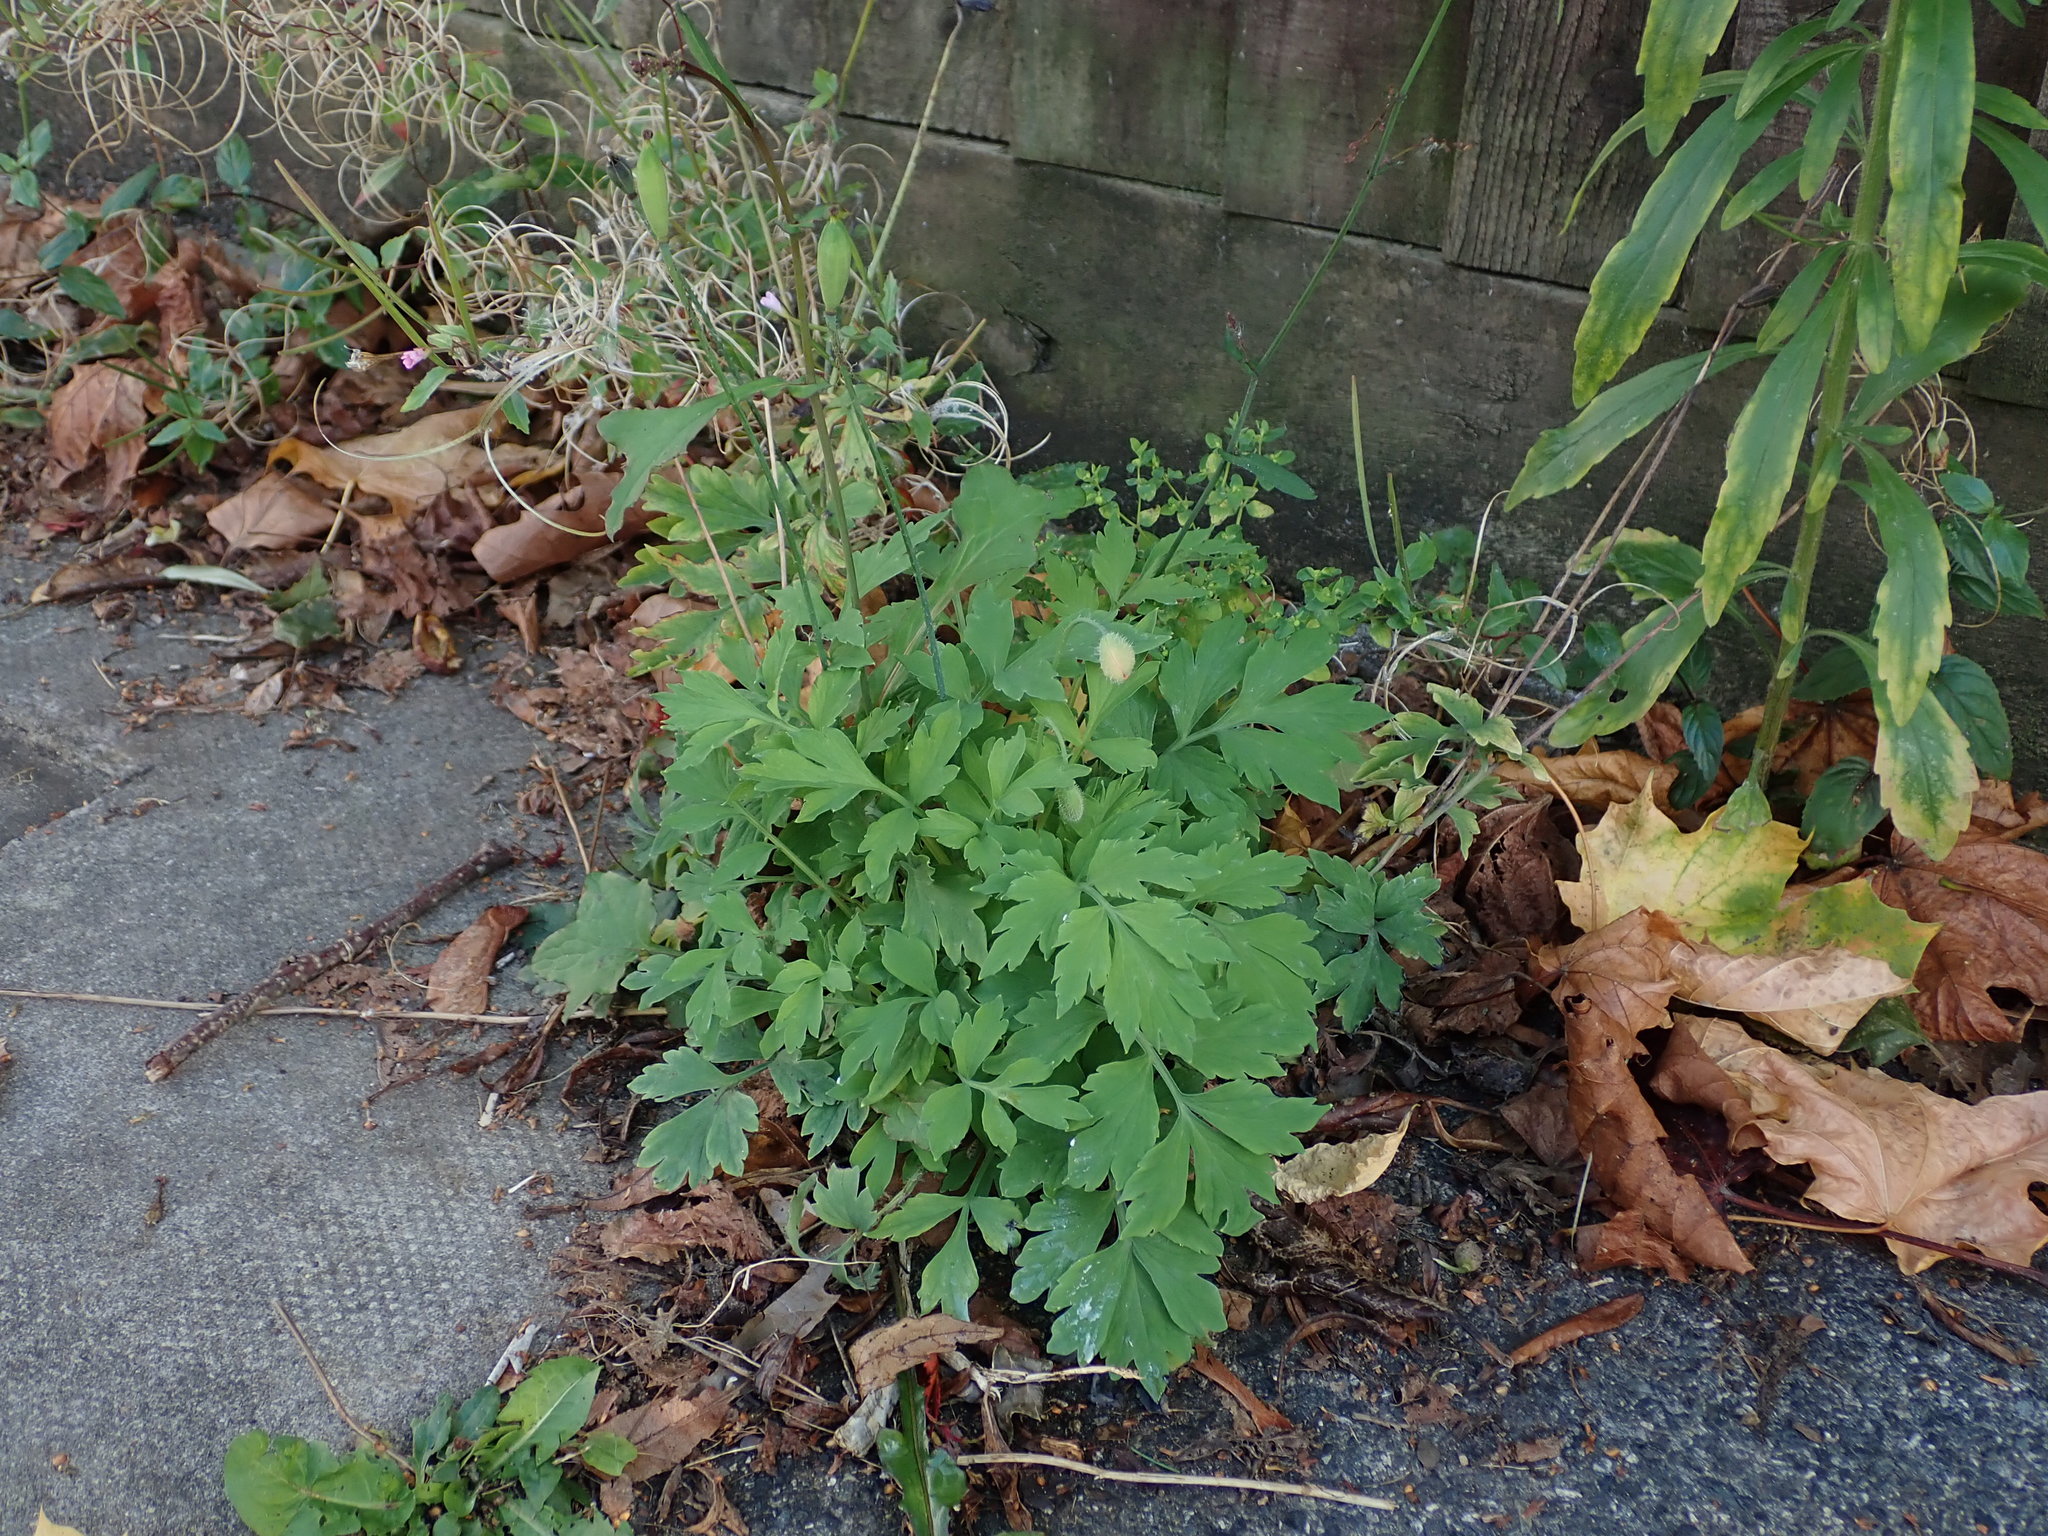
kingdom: Plantae
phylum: Tracheophyta
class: Magnoliopsida
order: Ranunculales
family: Papaveraceae
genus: Papaver
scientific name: Papaver cambricum
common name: Poppy
